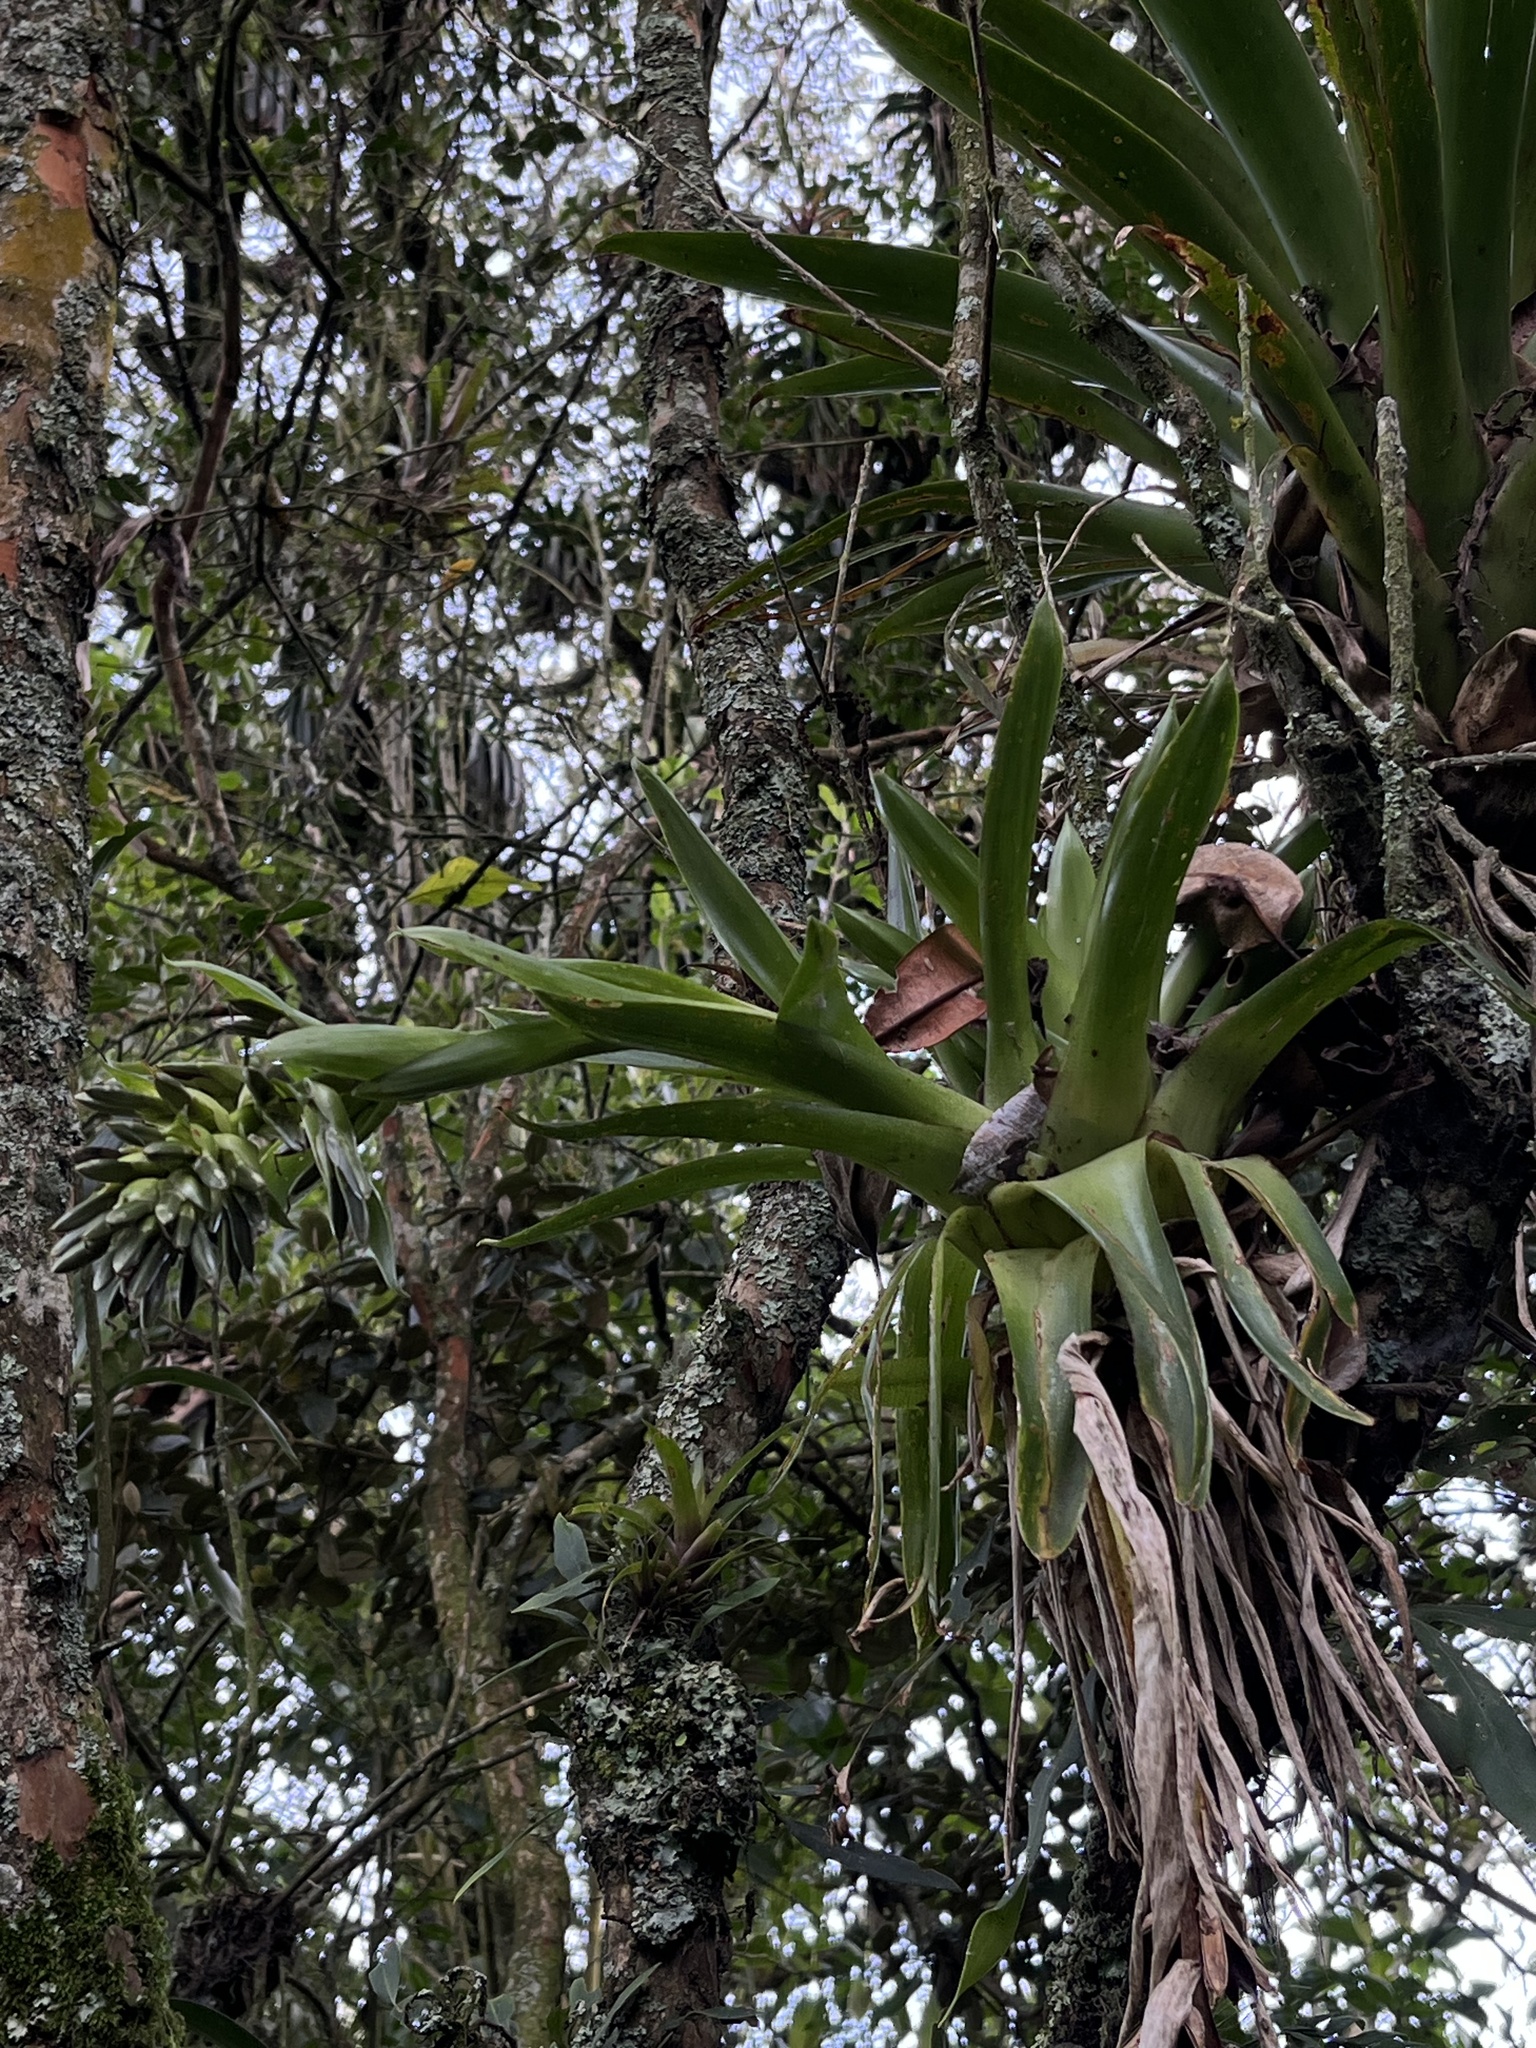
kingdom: Plantae
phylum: Tracheophyta
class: Liliopsida
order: Poales
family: Bromeliaceae
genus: Tillandsia
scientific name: Tillandsia biflora
